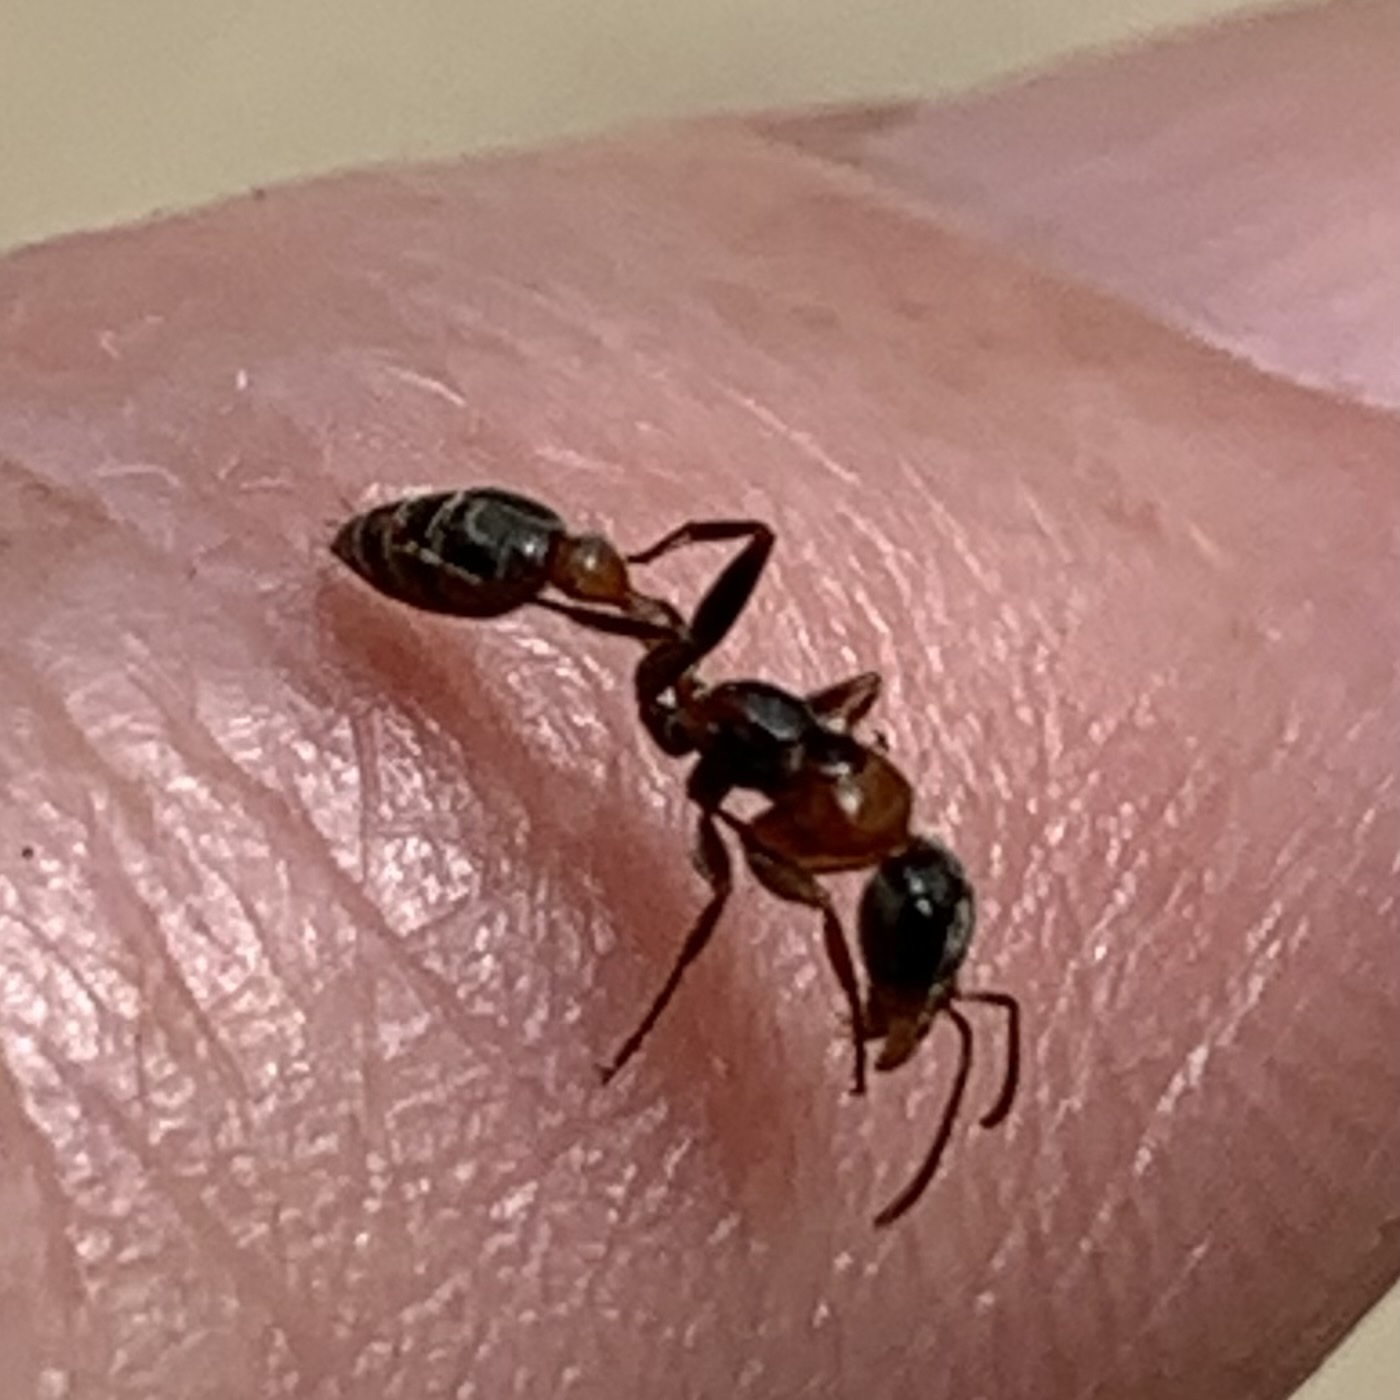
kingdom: Animalia
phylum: Arthropoda
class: Insecta
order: Hymenoptera
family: Formicidae
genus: Pseudomyrmex
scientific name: Pseudomyrmex gracilis
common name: Graceful twig ant
